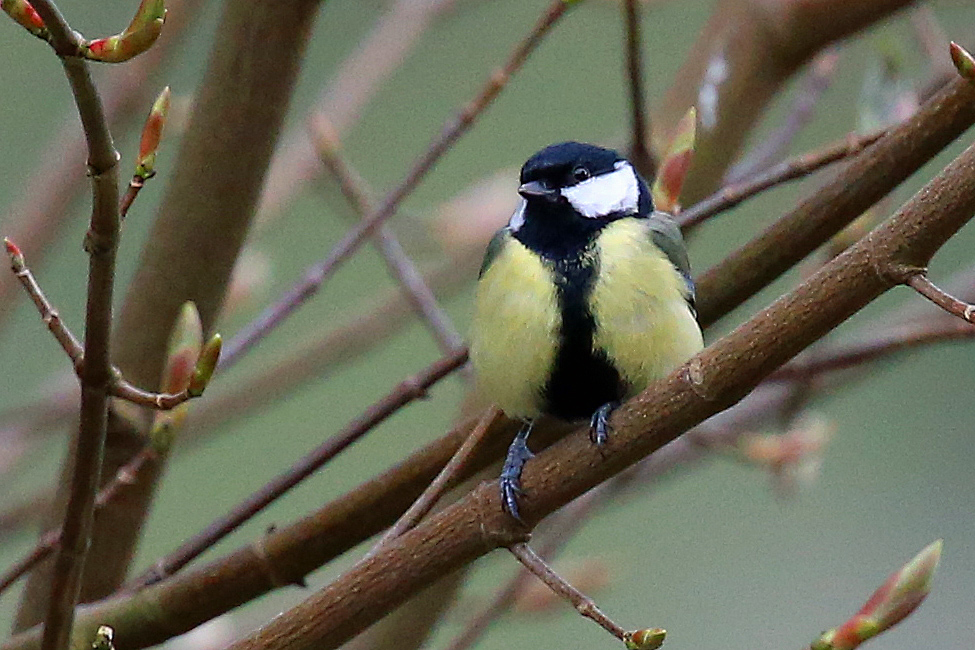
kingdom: Animalia
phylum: Chordata
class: Aves
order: Passeriformes
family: Paridae
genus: Parus
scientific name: Parus major
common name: Great tit
